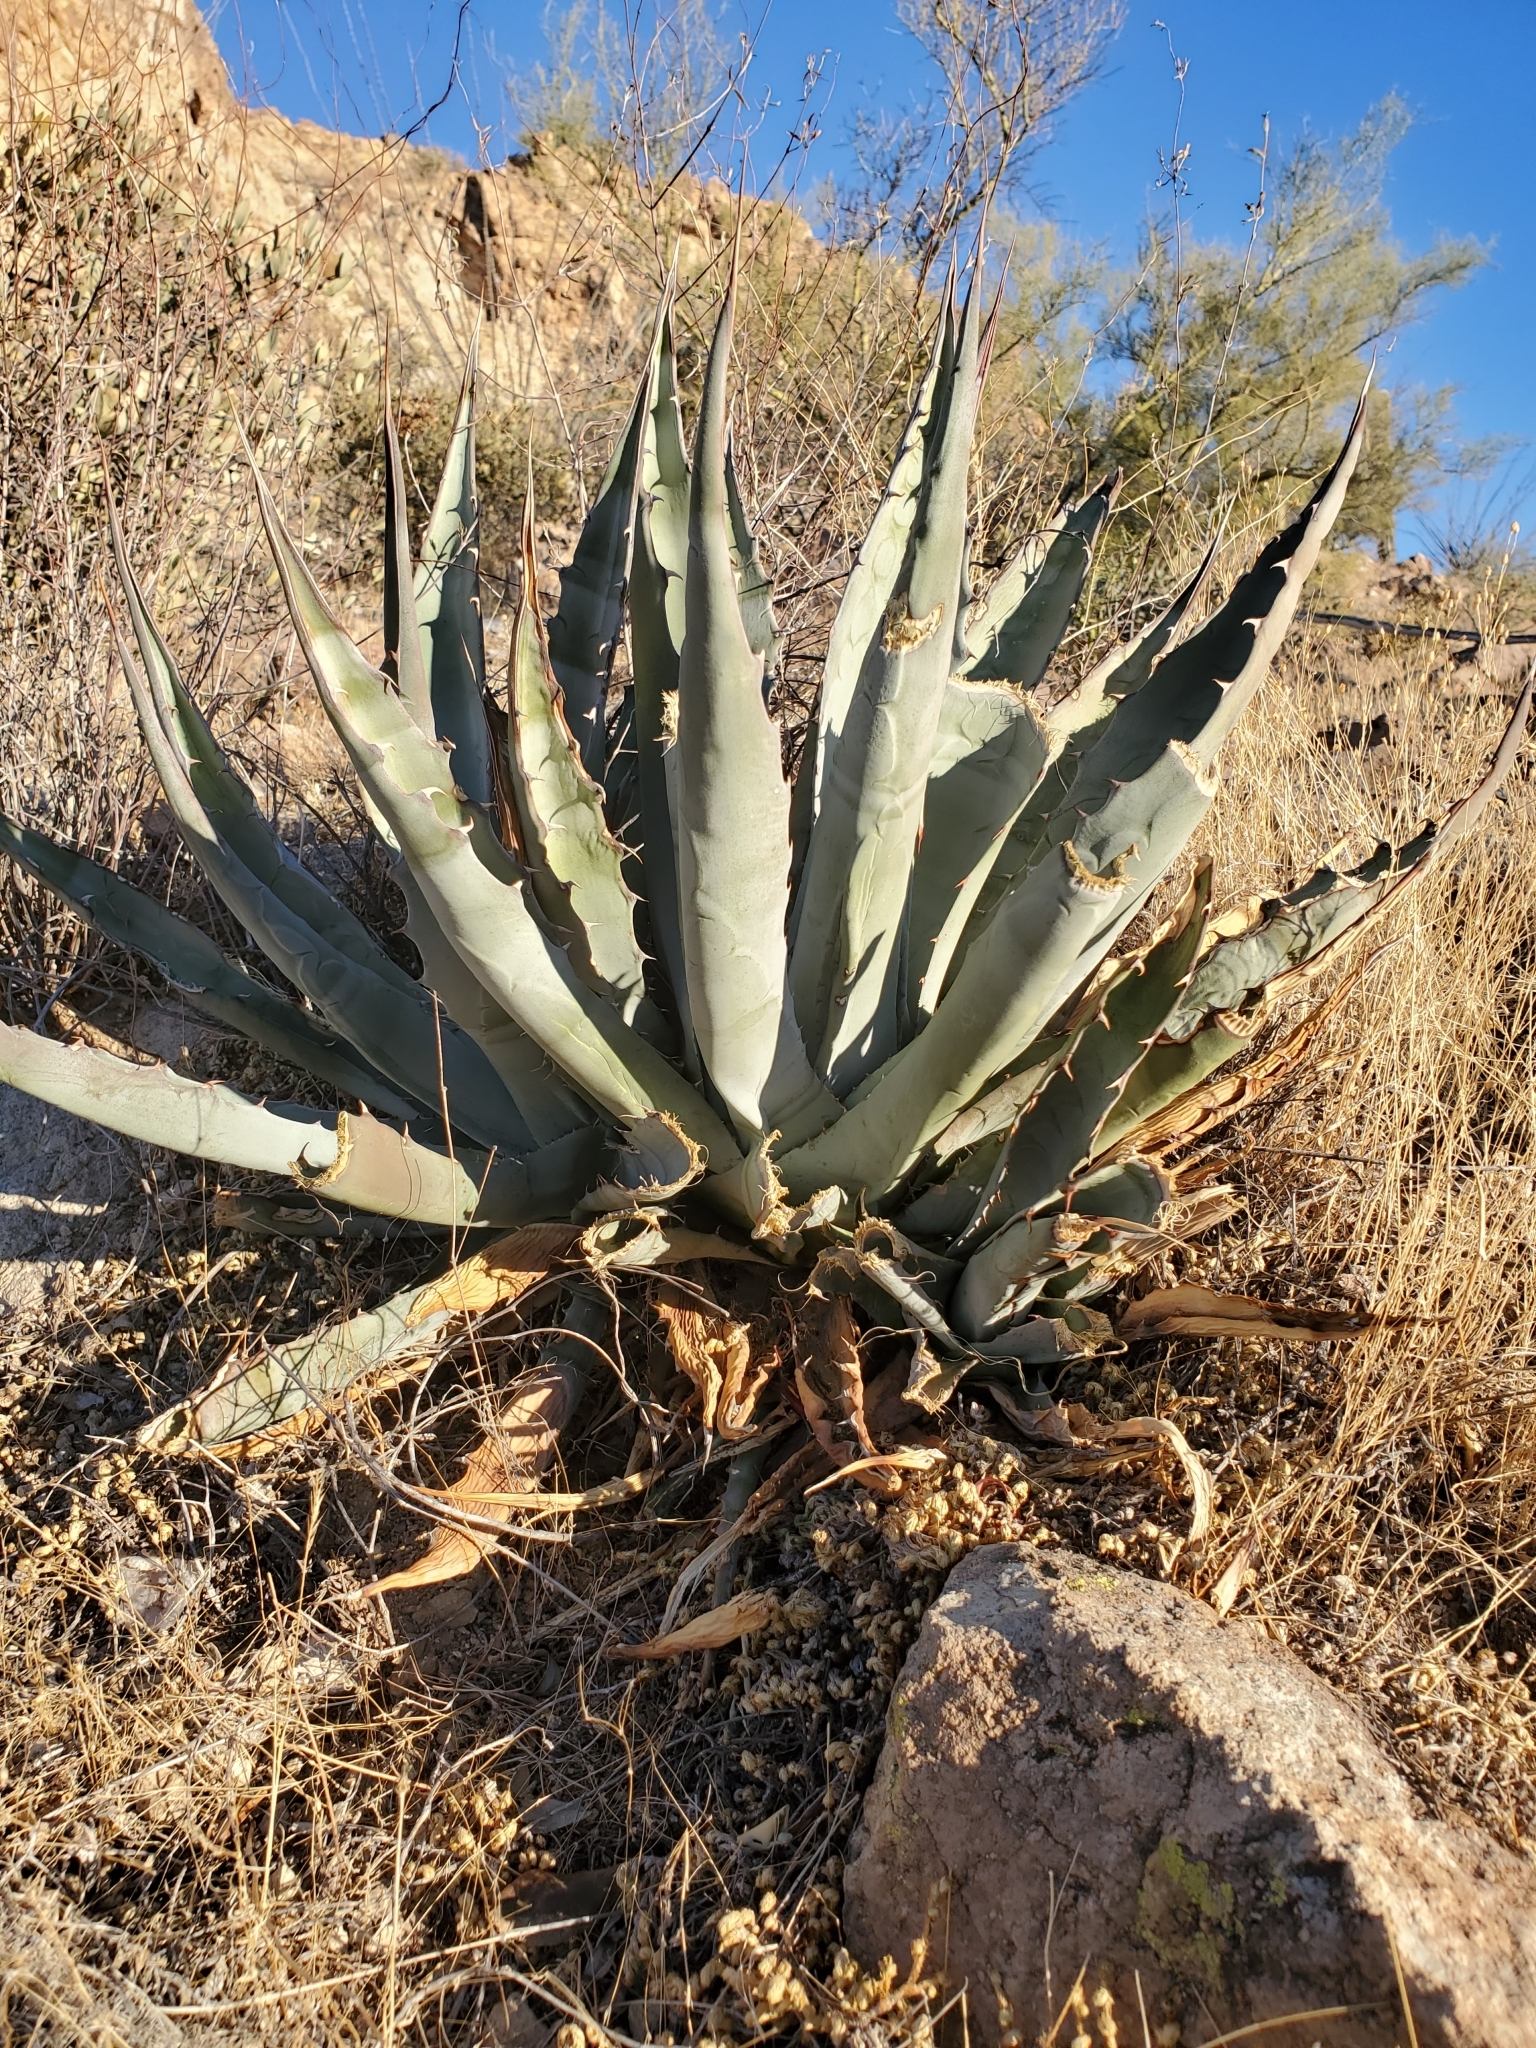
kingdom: Plantae
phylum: Tracheophyta
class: Liliopsida
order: Asparagales
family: Asparagaceae
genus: Agave
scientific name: Agave simplex
